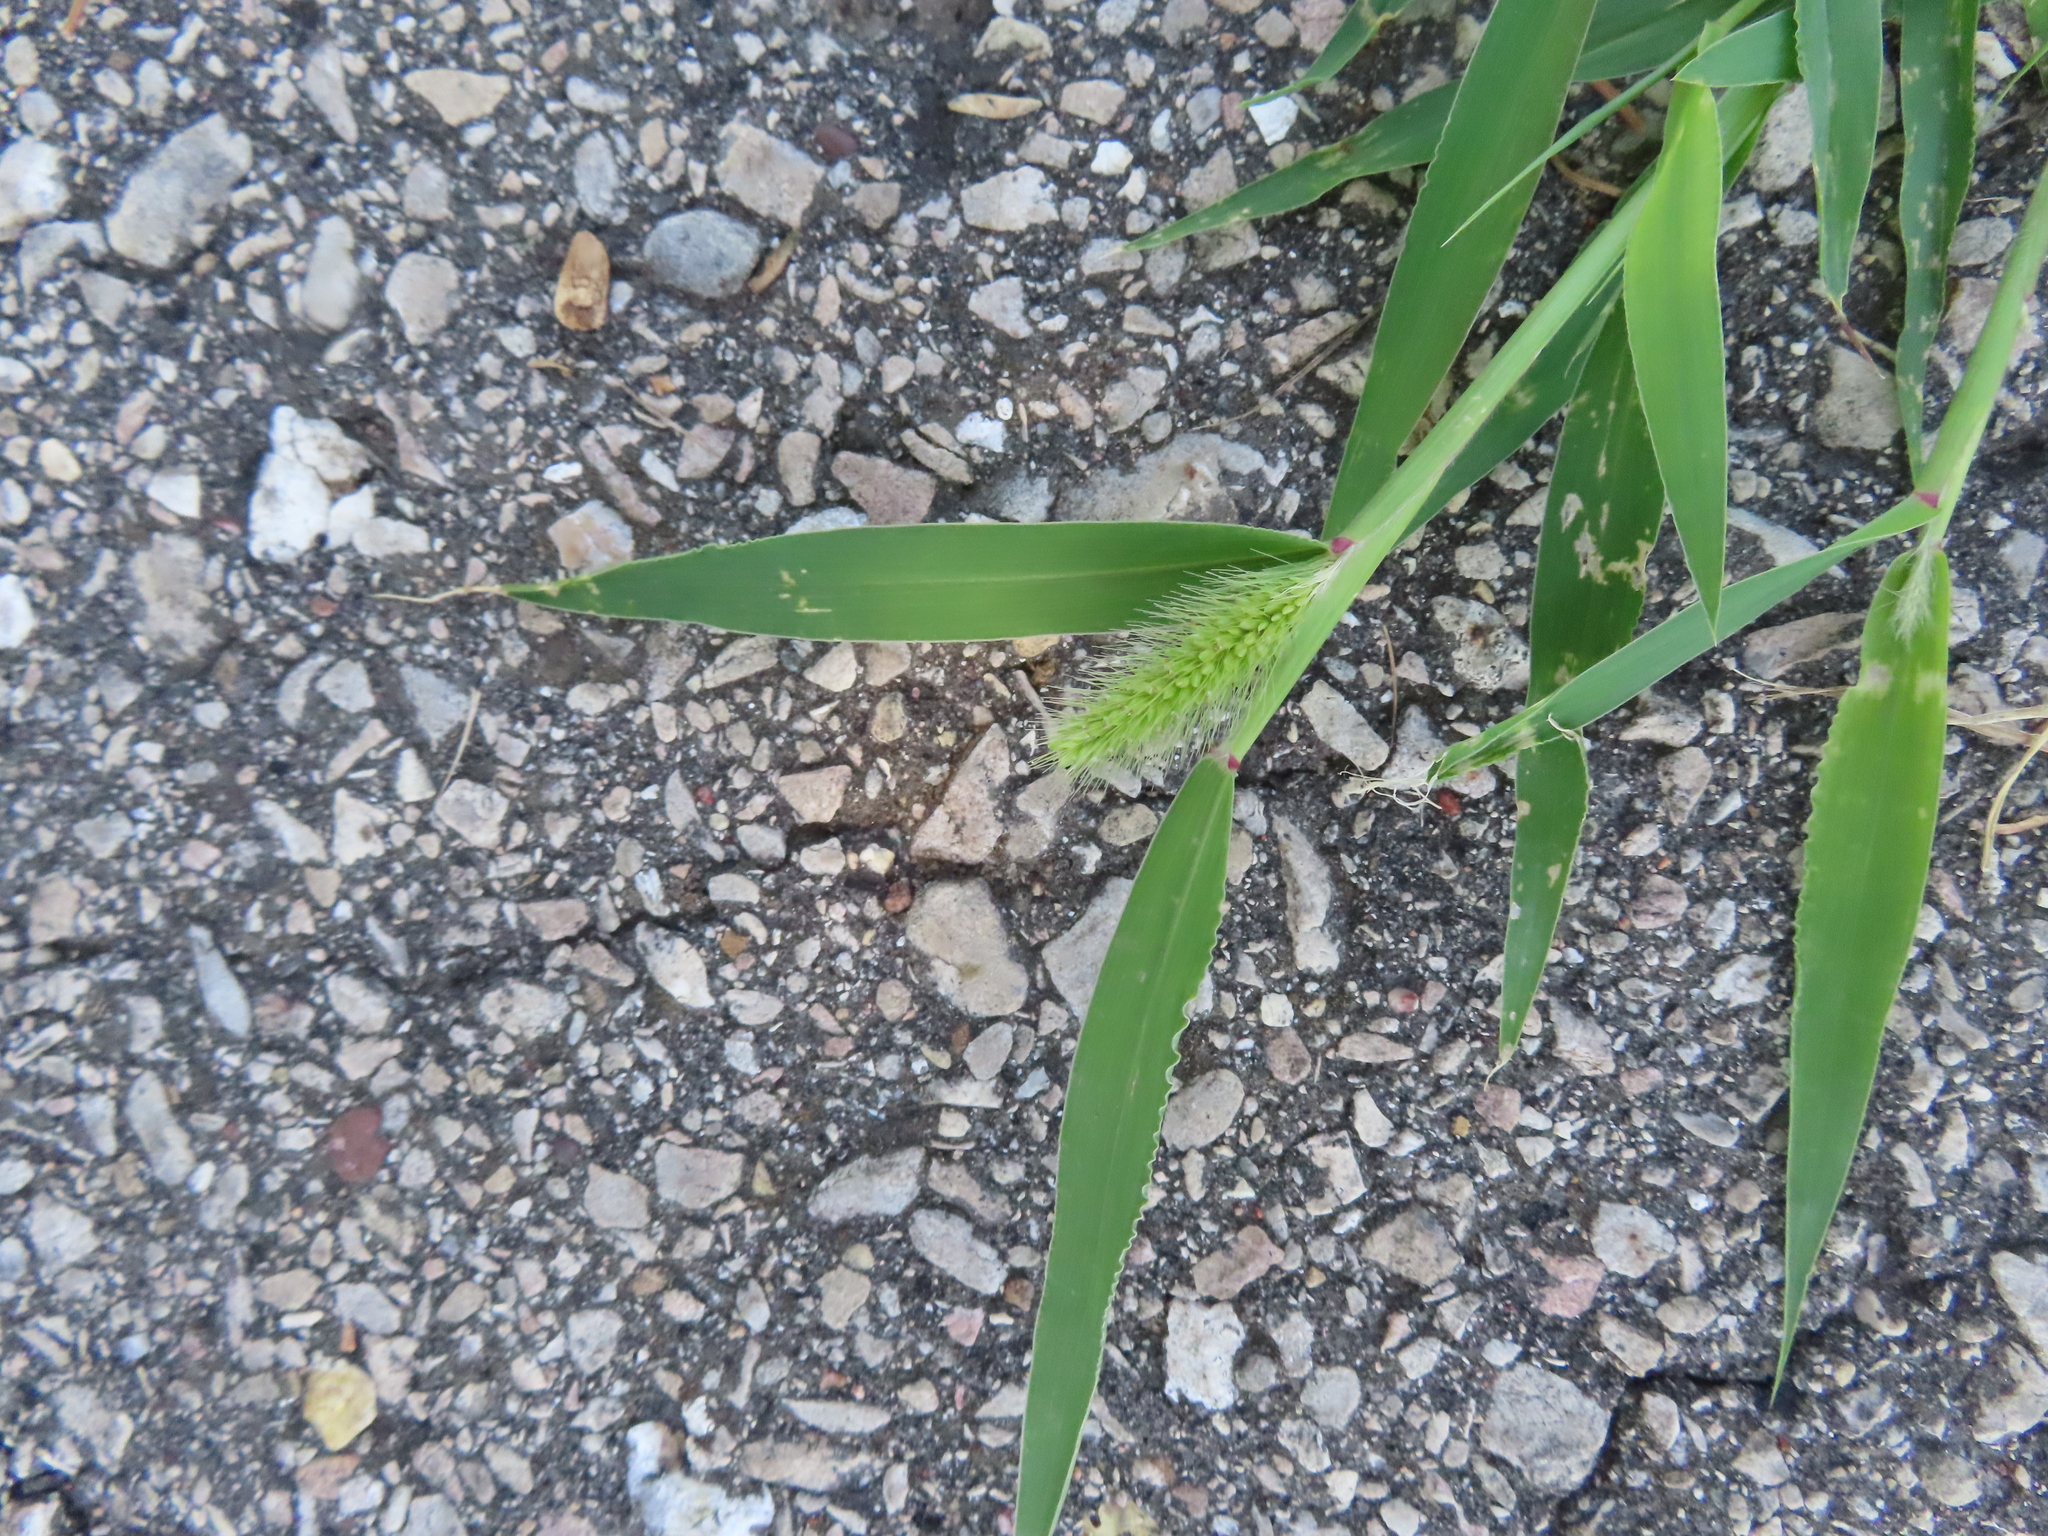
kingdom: Plantae
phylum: Tracheophyta
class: Liliopsida
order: Poales
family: Poaceae
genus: Setaria
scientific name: Setaria viridis
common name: Green bristlegrass
